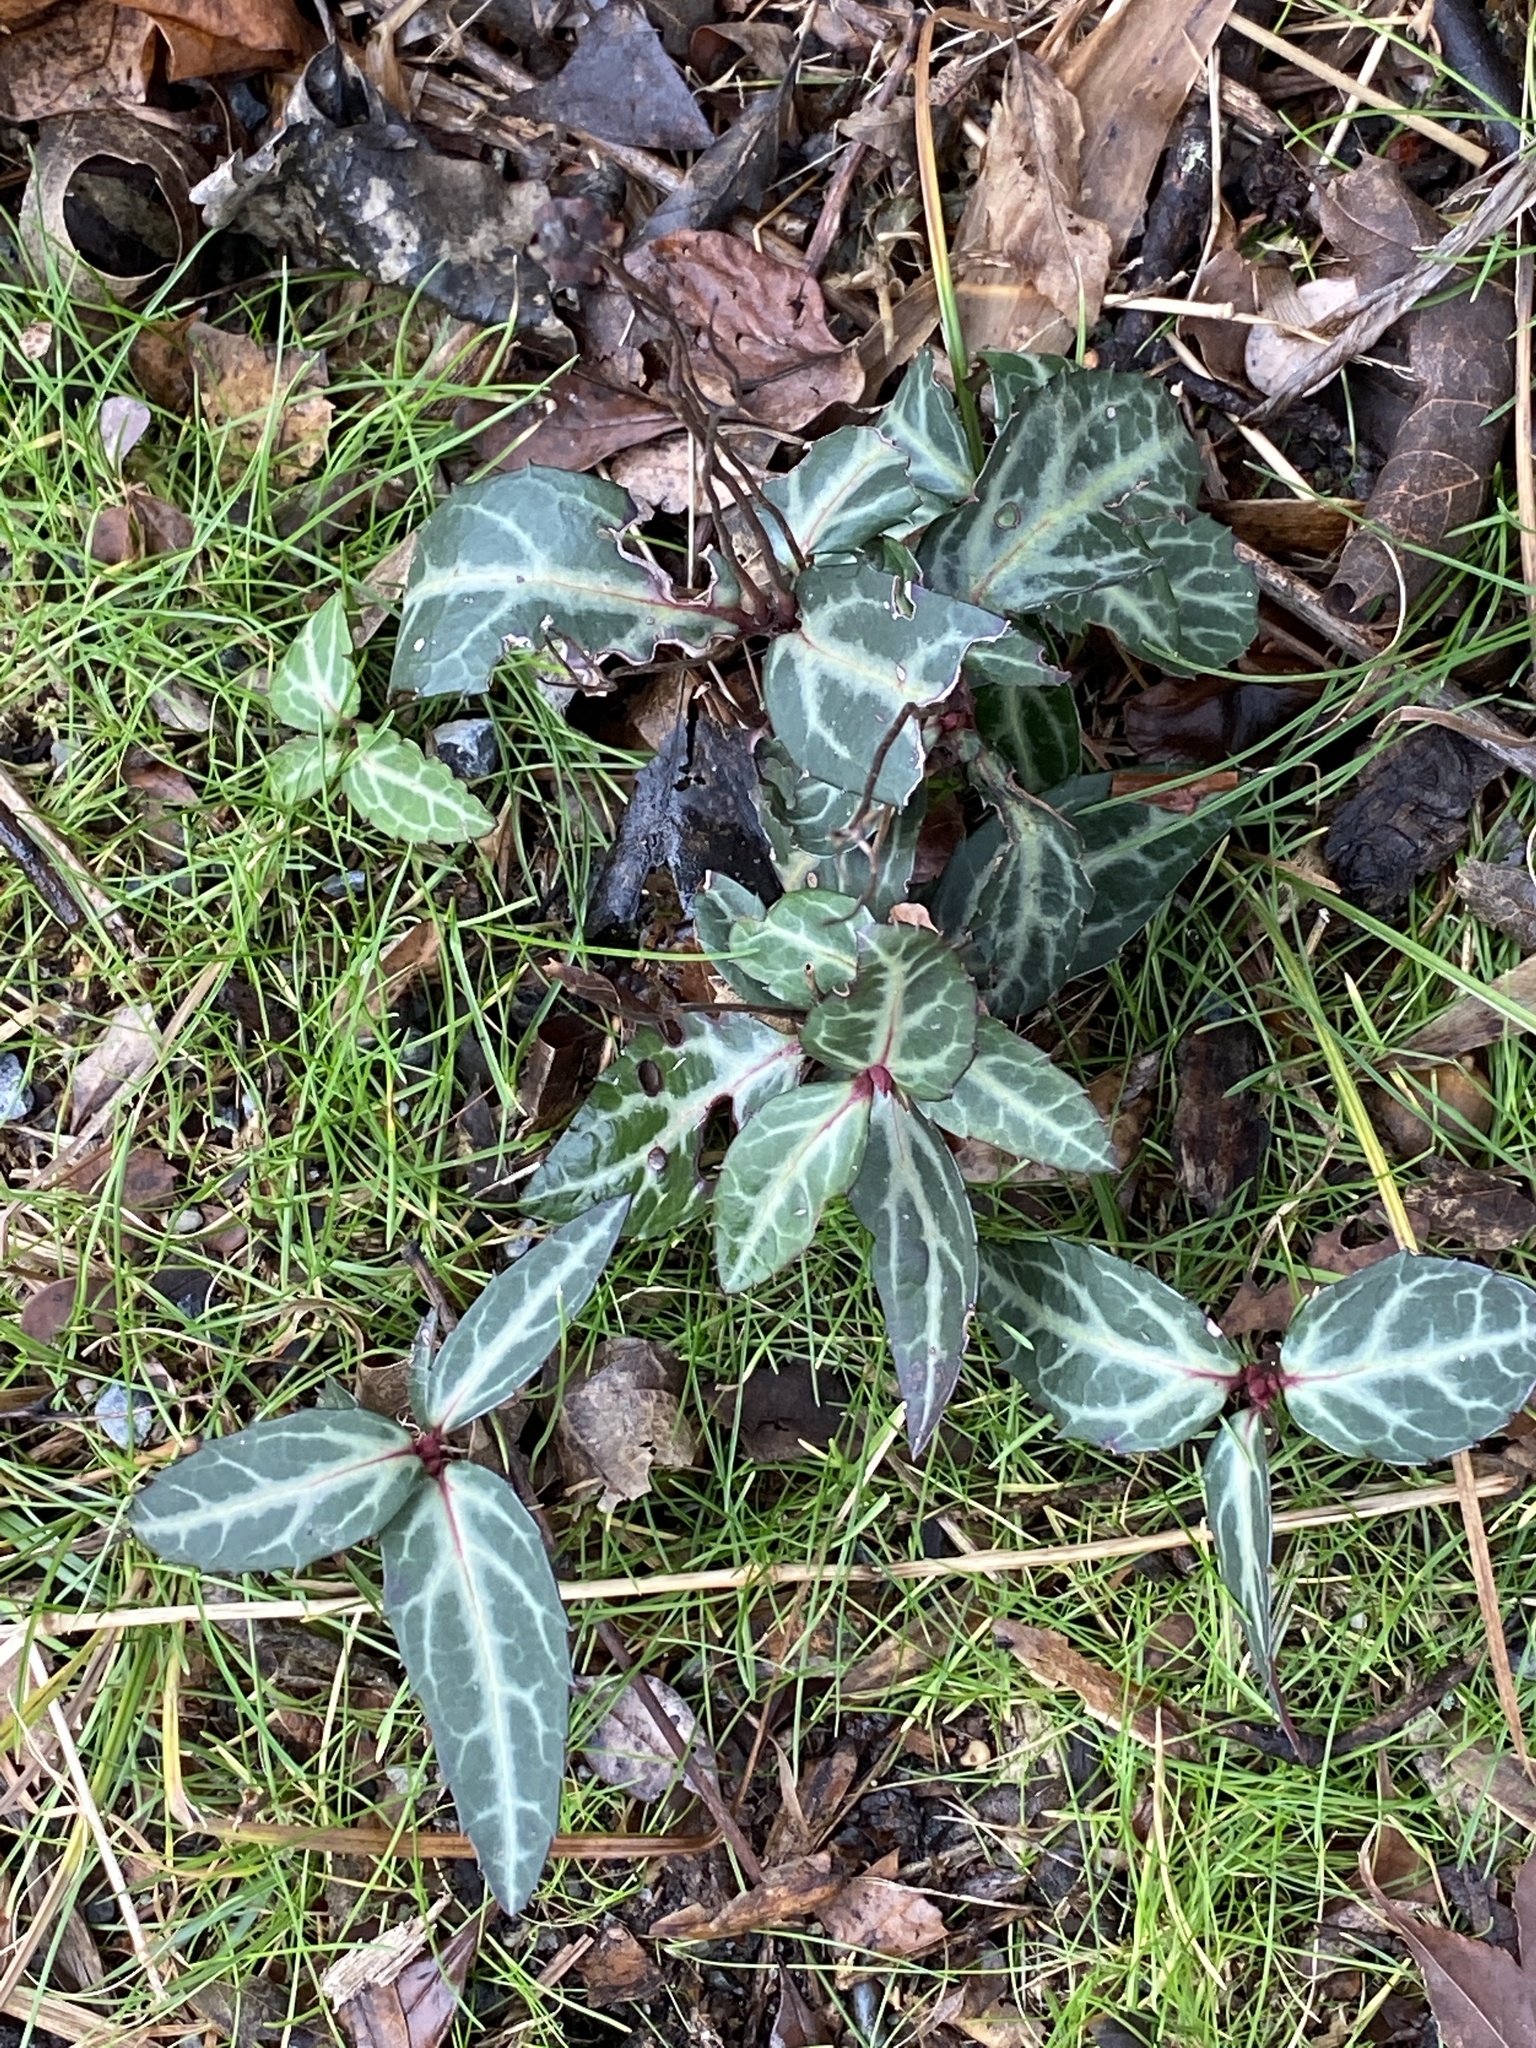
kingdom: Plantae
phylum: Tracheophyta
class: Magnoliopsida
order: Ericales
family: Ericaceae
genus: Chimaphila
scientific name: Chimaphila maculata
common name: Spotted pipsissewa
